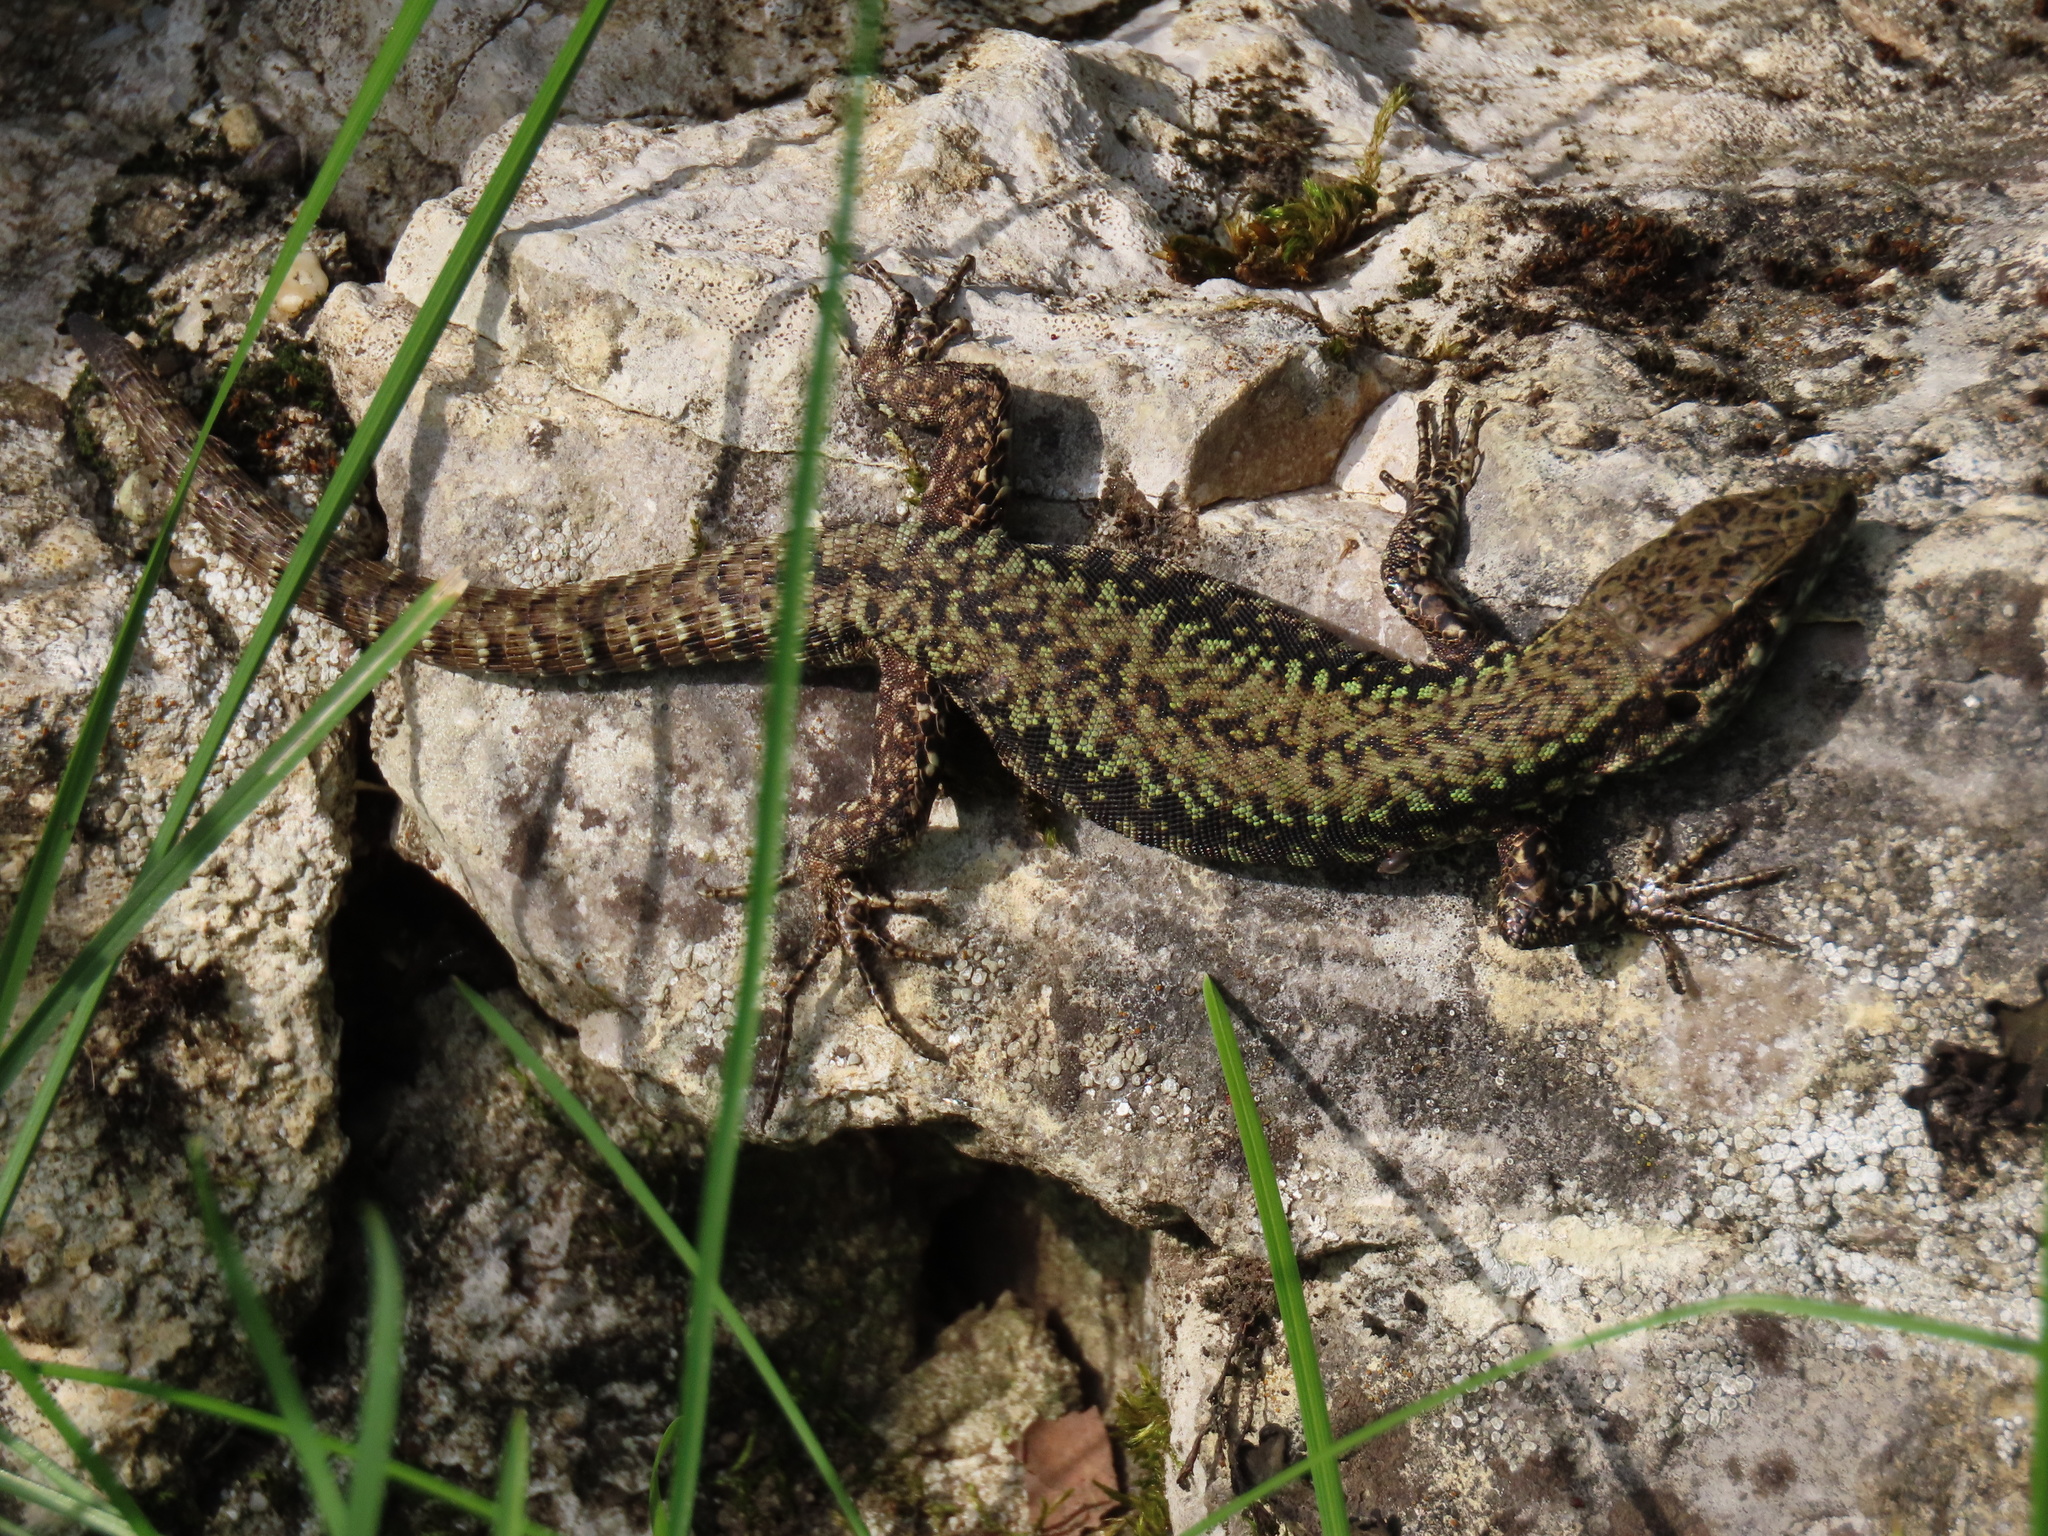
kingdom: Animalia
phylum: Chordata
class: Squamata
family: Lacertidae
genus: Podarcis
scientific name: Podarcis muralis
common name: Common wall lizard
